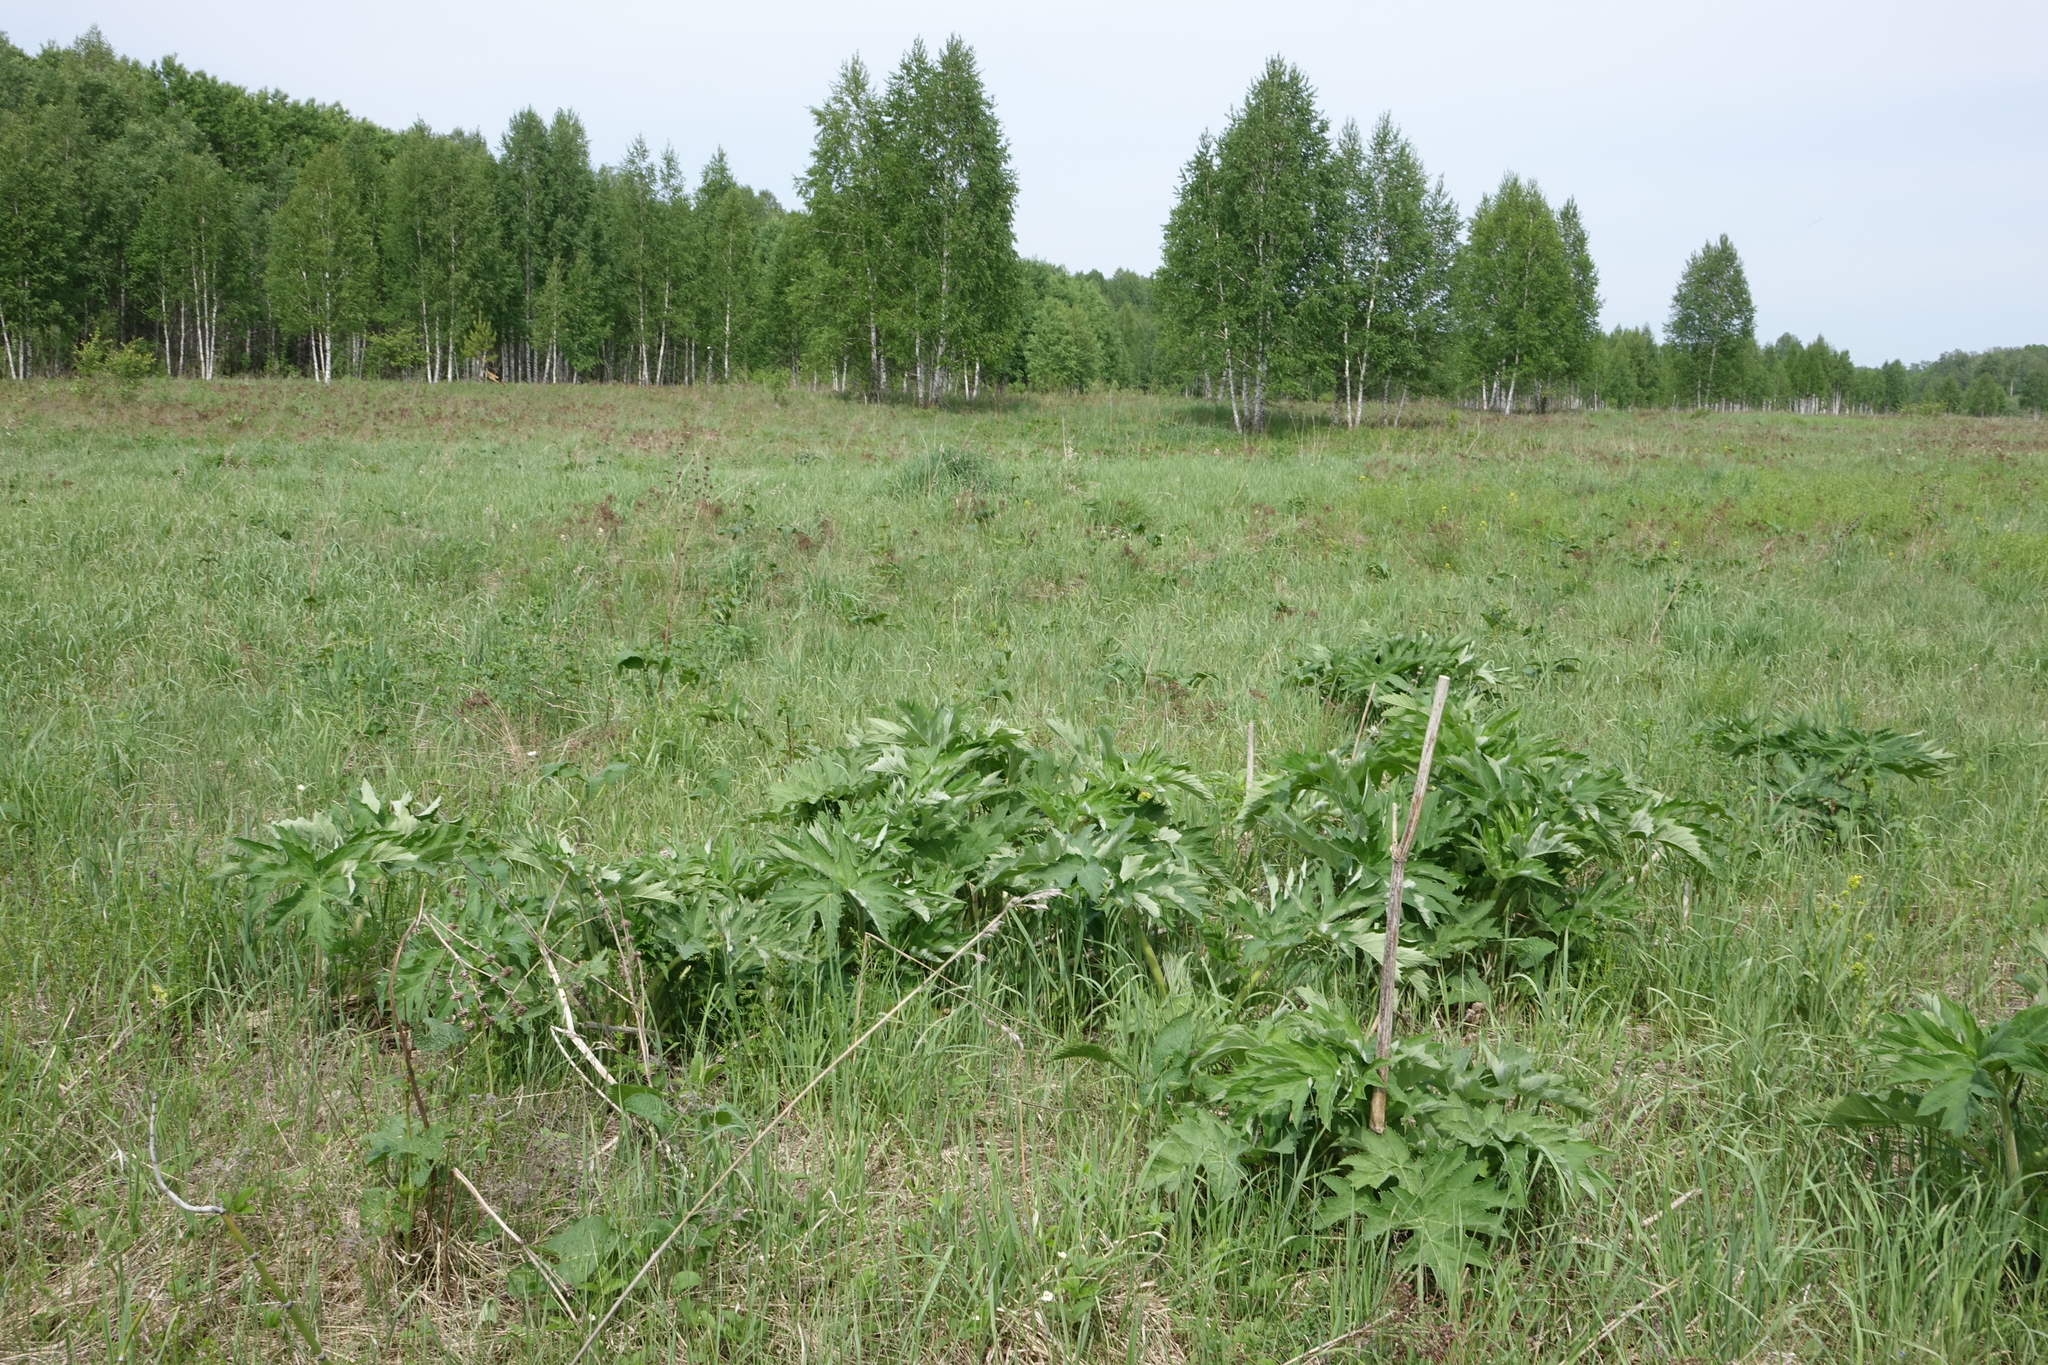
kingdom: Plantae
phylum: Tracheophyta
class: Magnoliopsida
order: Apiales
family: Apiaceae
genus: Heracleum
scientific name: Heracleum dissectum
